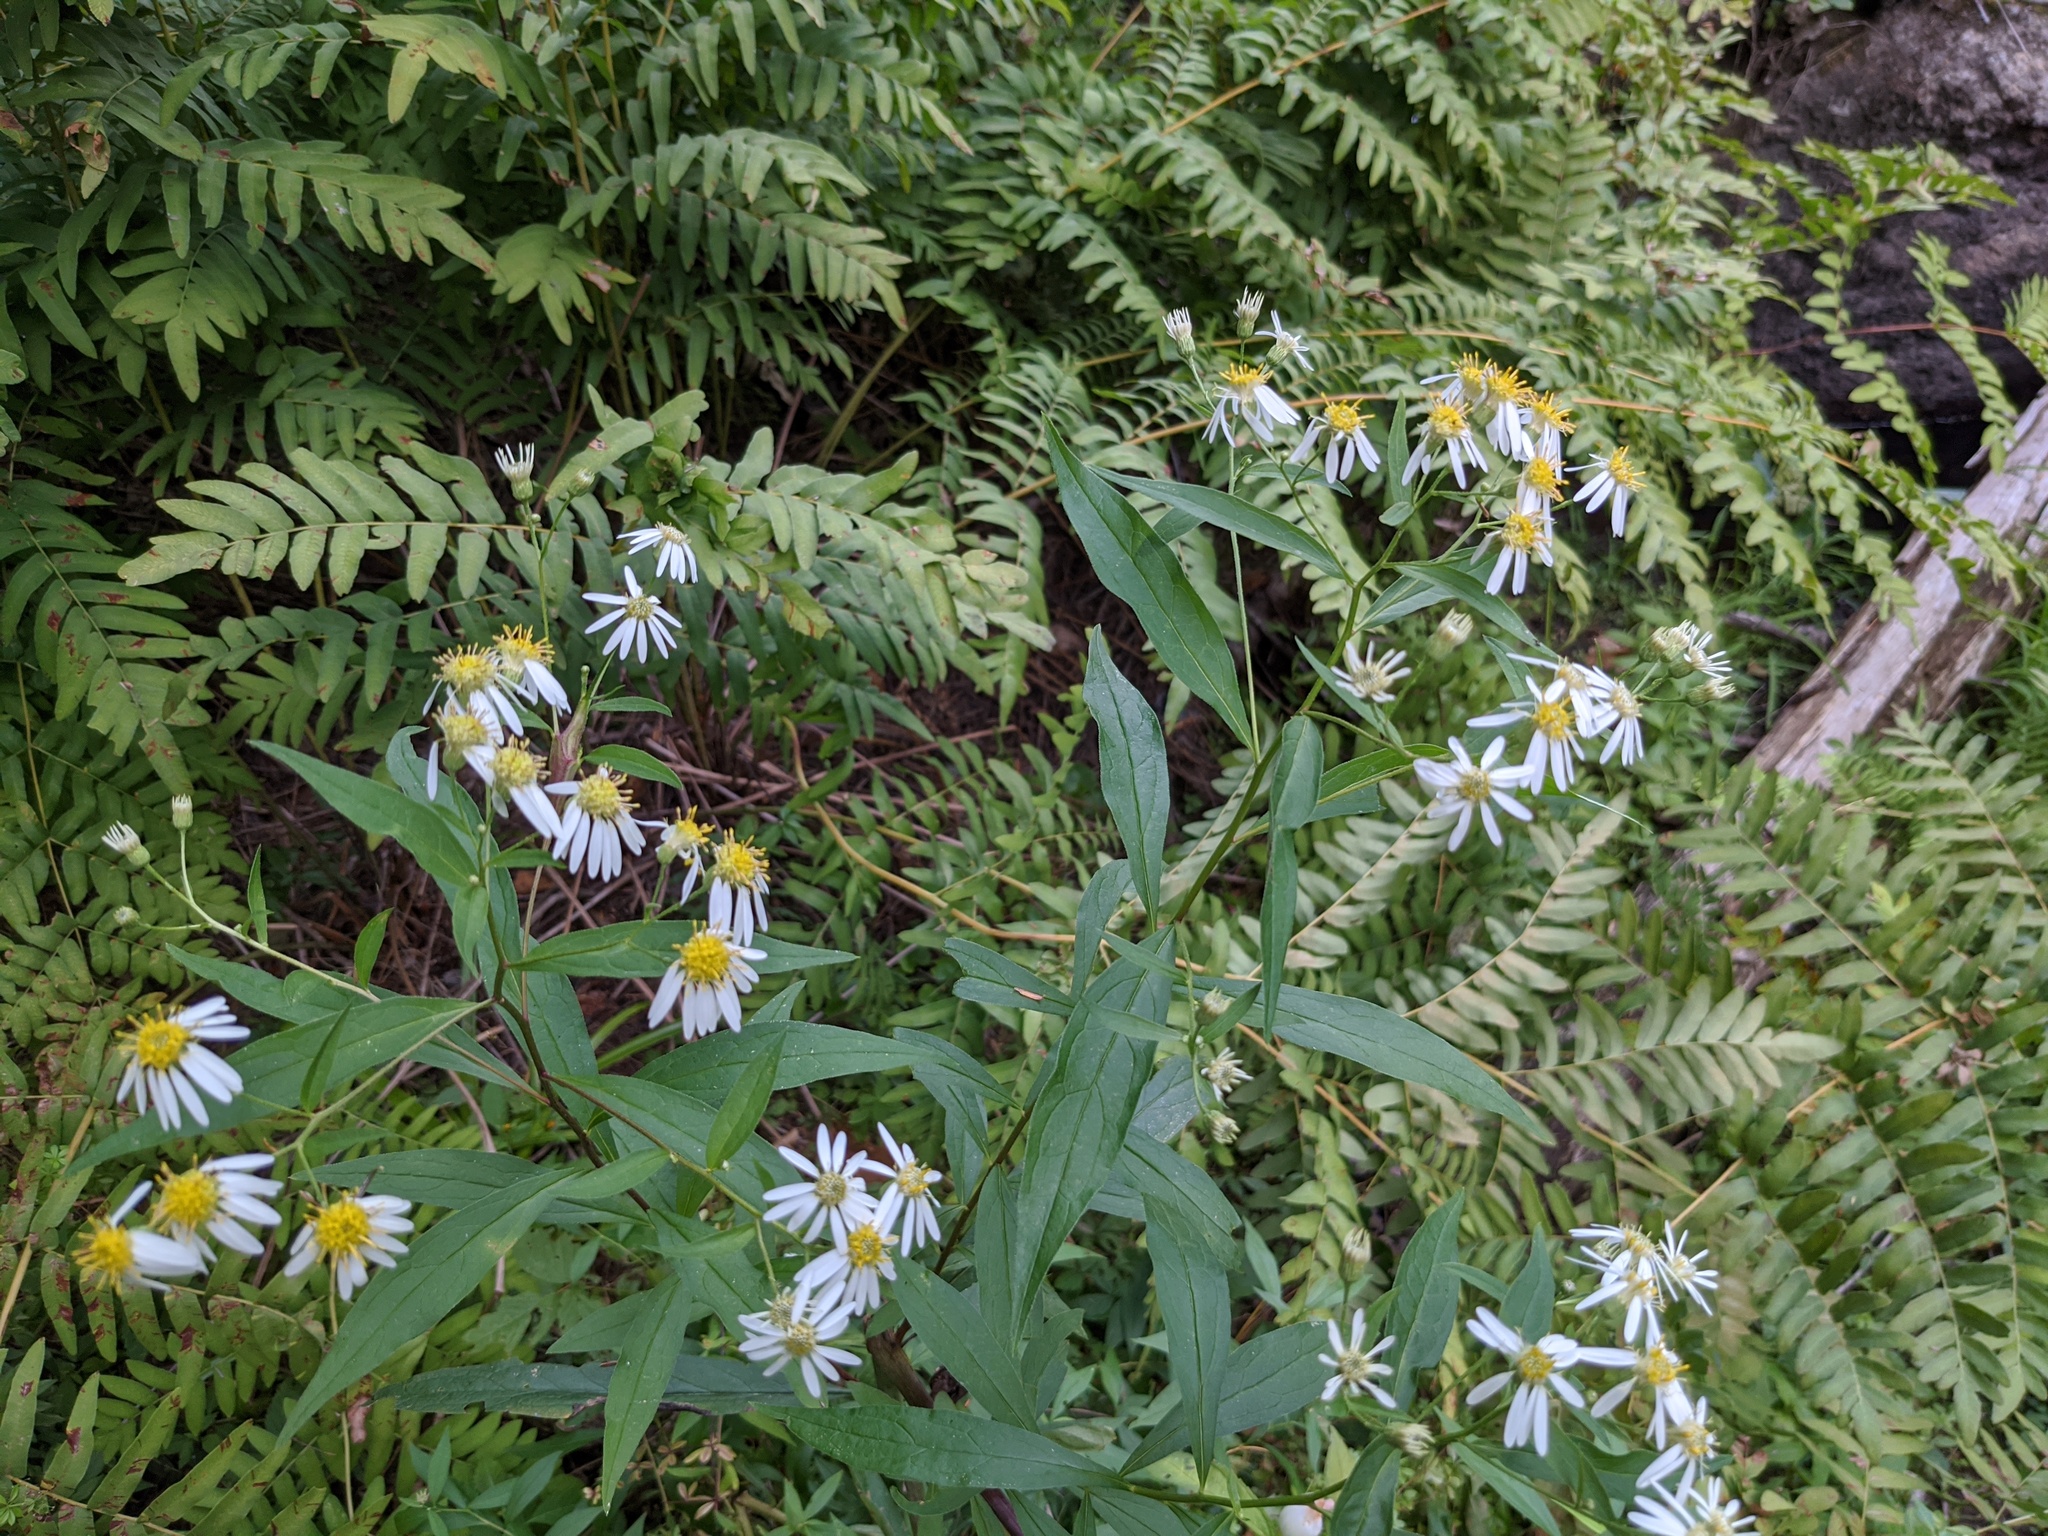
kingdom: Plantae
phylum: Tracheophyta
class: Magnoliopsida
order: Asterales
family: Asteraceae
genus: Doellingeria
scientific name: Doellingeria umbellata
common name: Flat-top white aster
